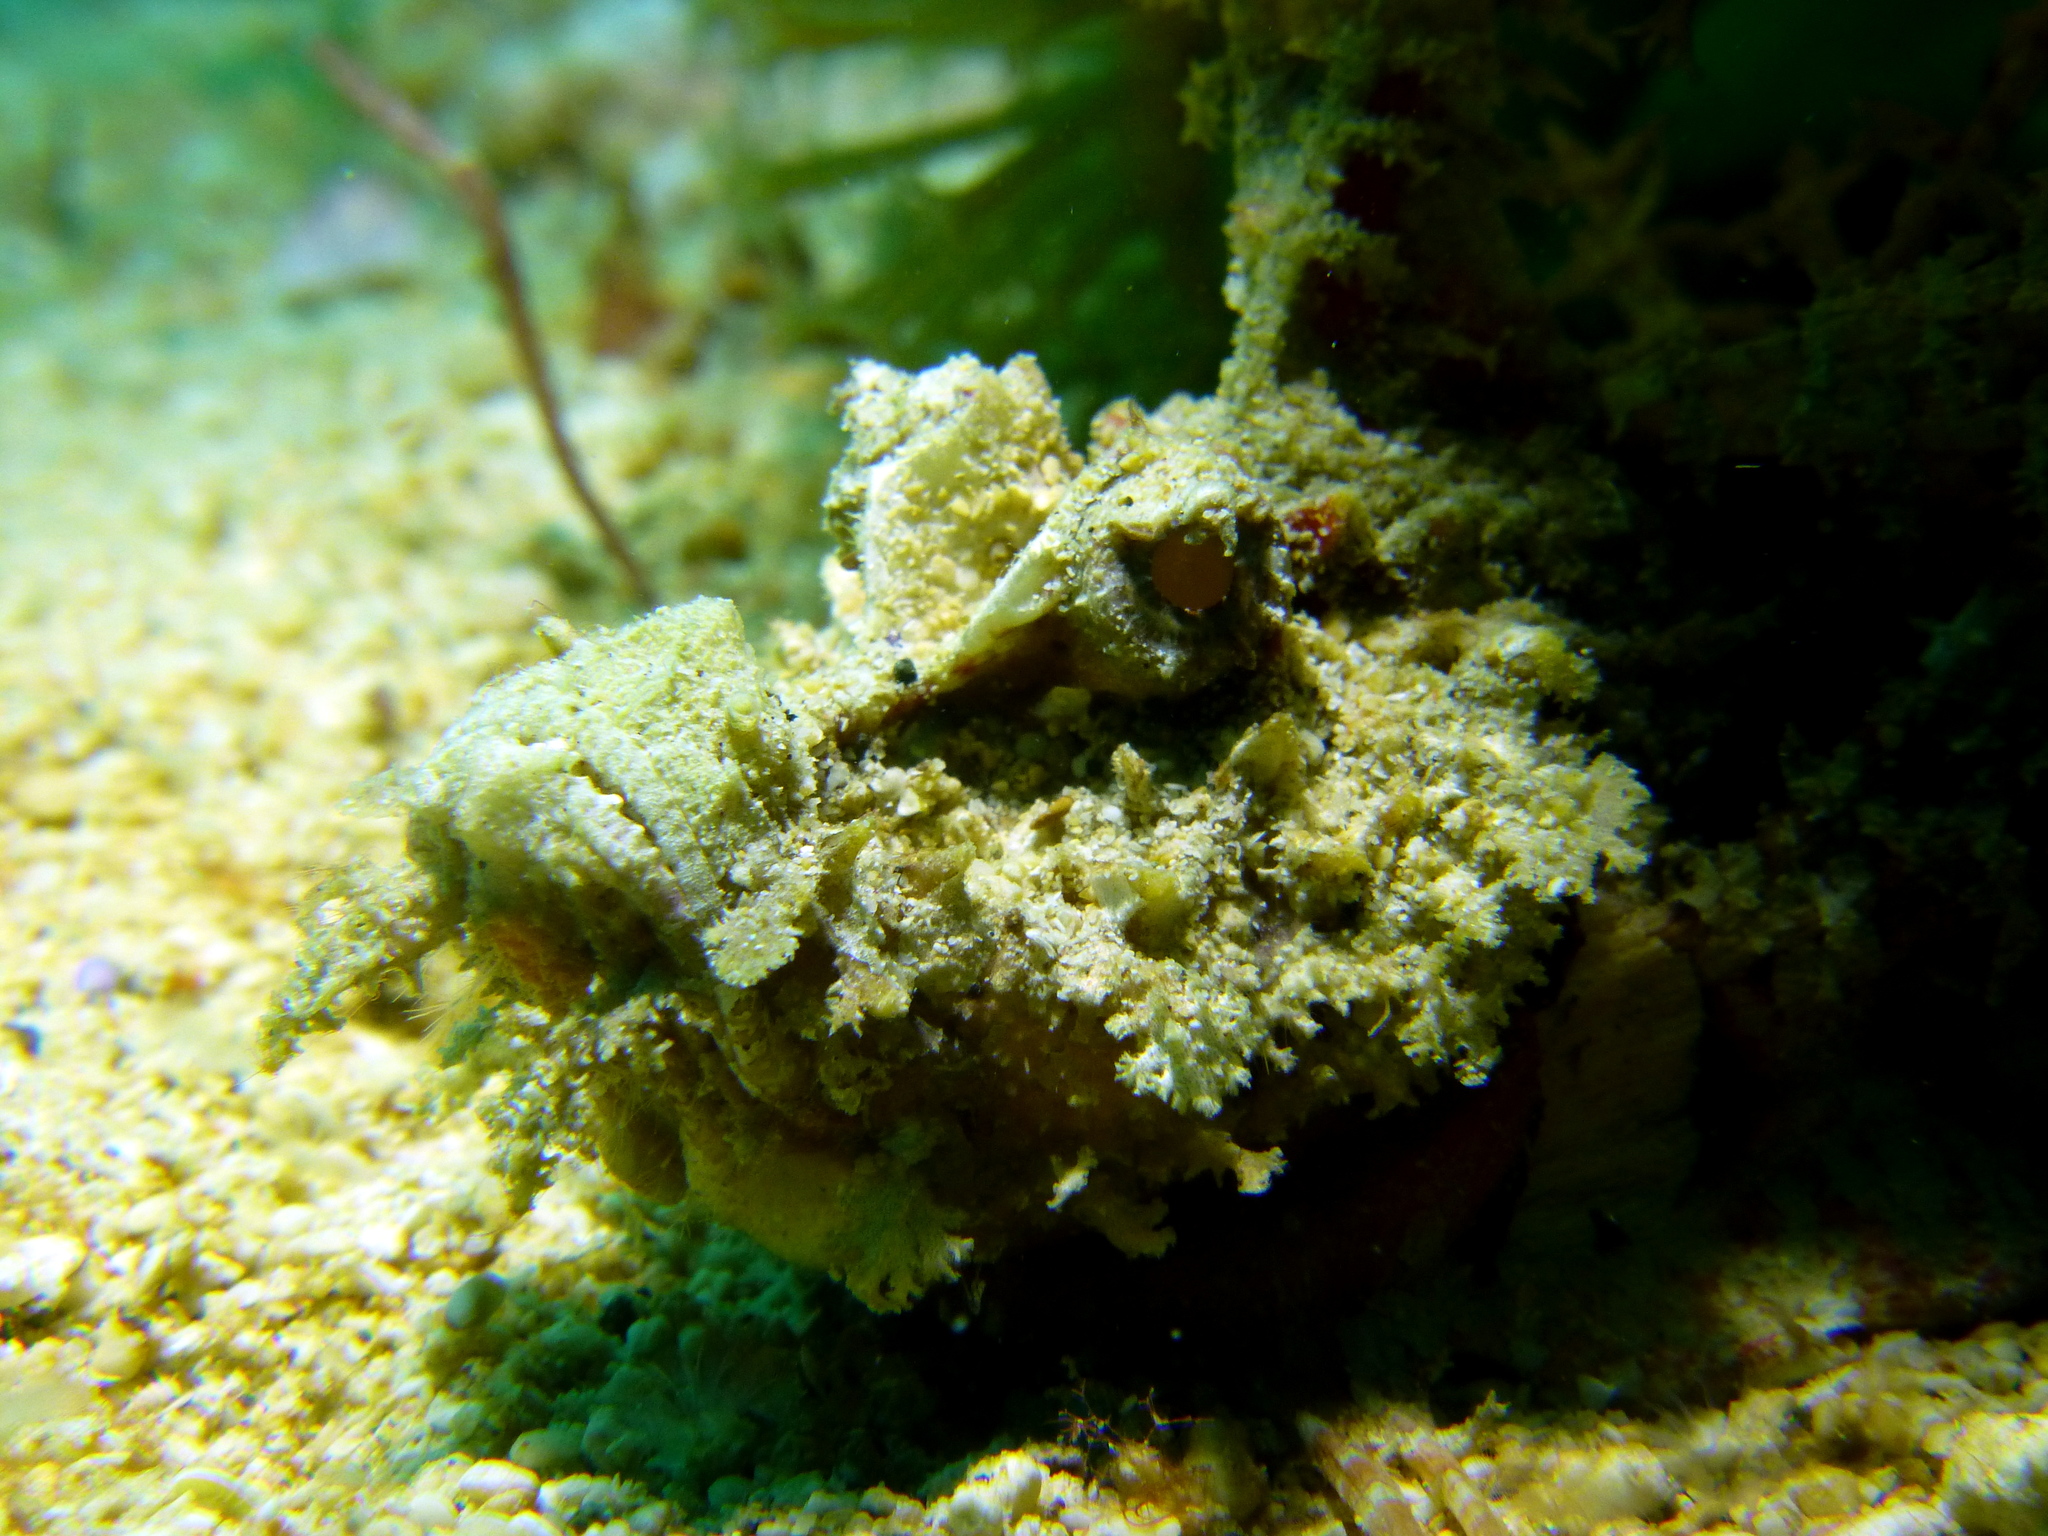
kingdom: Animalia
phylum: Chordata
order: Scorpaeniformes
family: Synanceiidae
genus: Inimicus
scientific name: Inimicus didactylus
